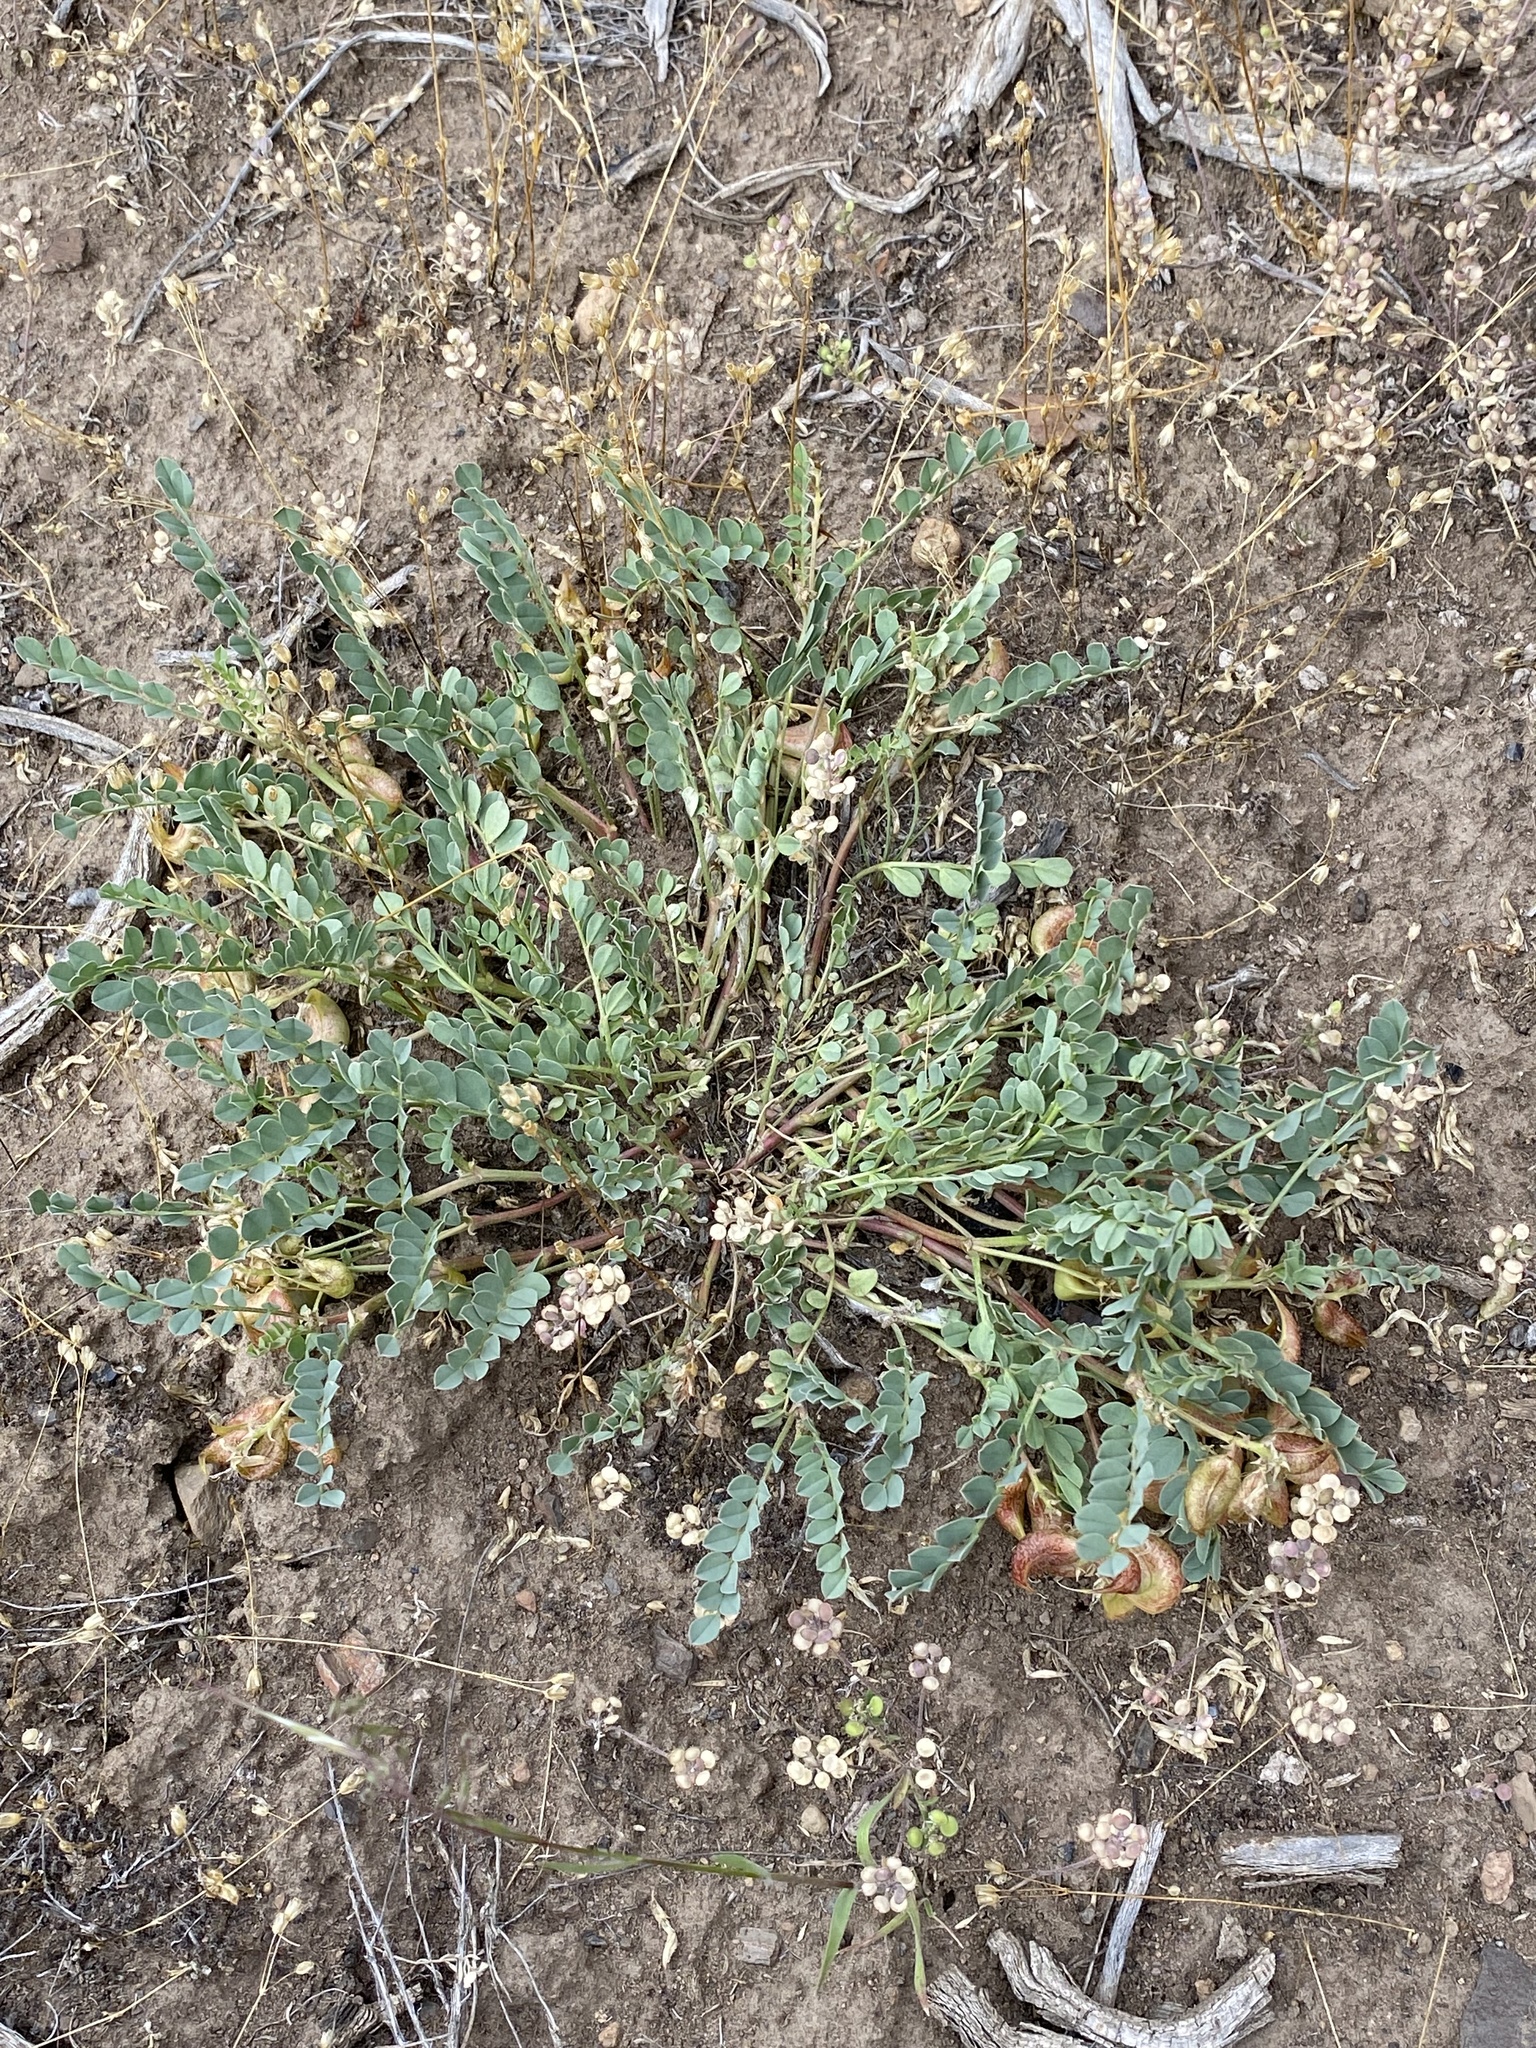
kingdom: Plantae
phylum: Tracheophyta
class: Magnoliopsida
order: Fabales
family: Fabaceae
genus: Astragalus
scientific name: Astragalus lentiginosus
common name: Freckled milkvetch
